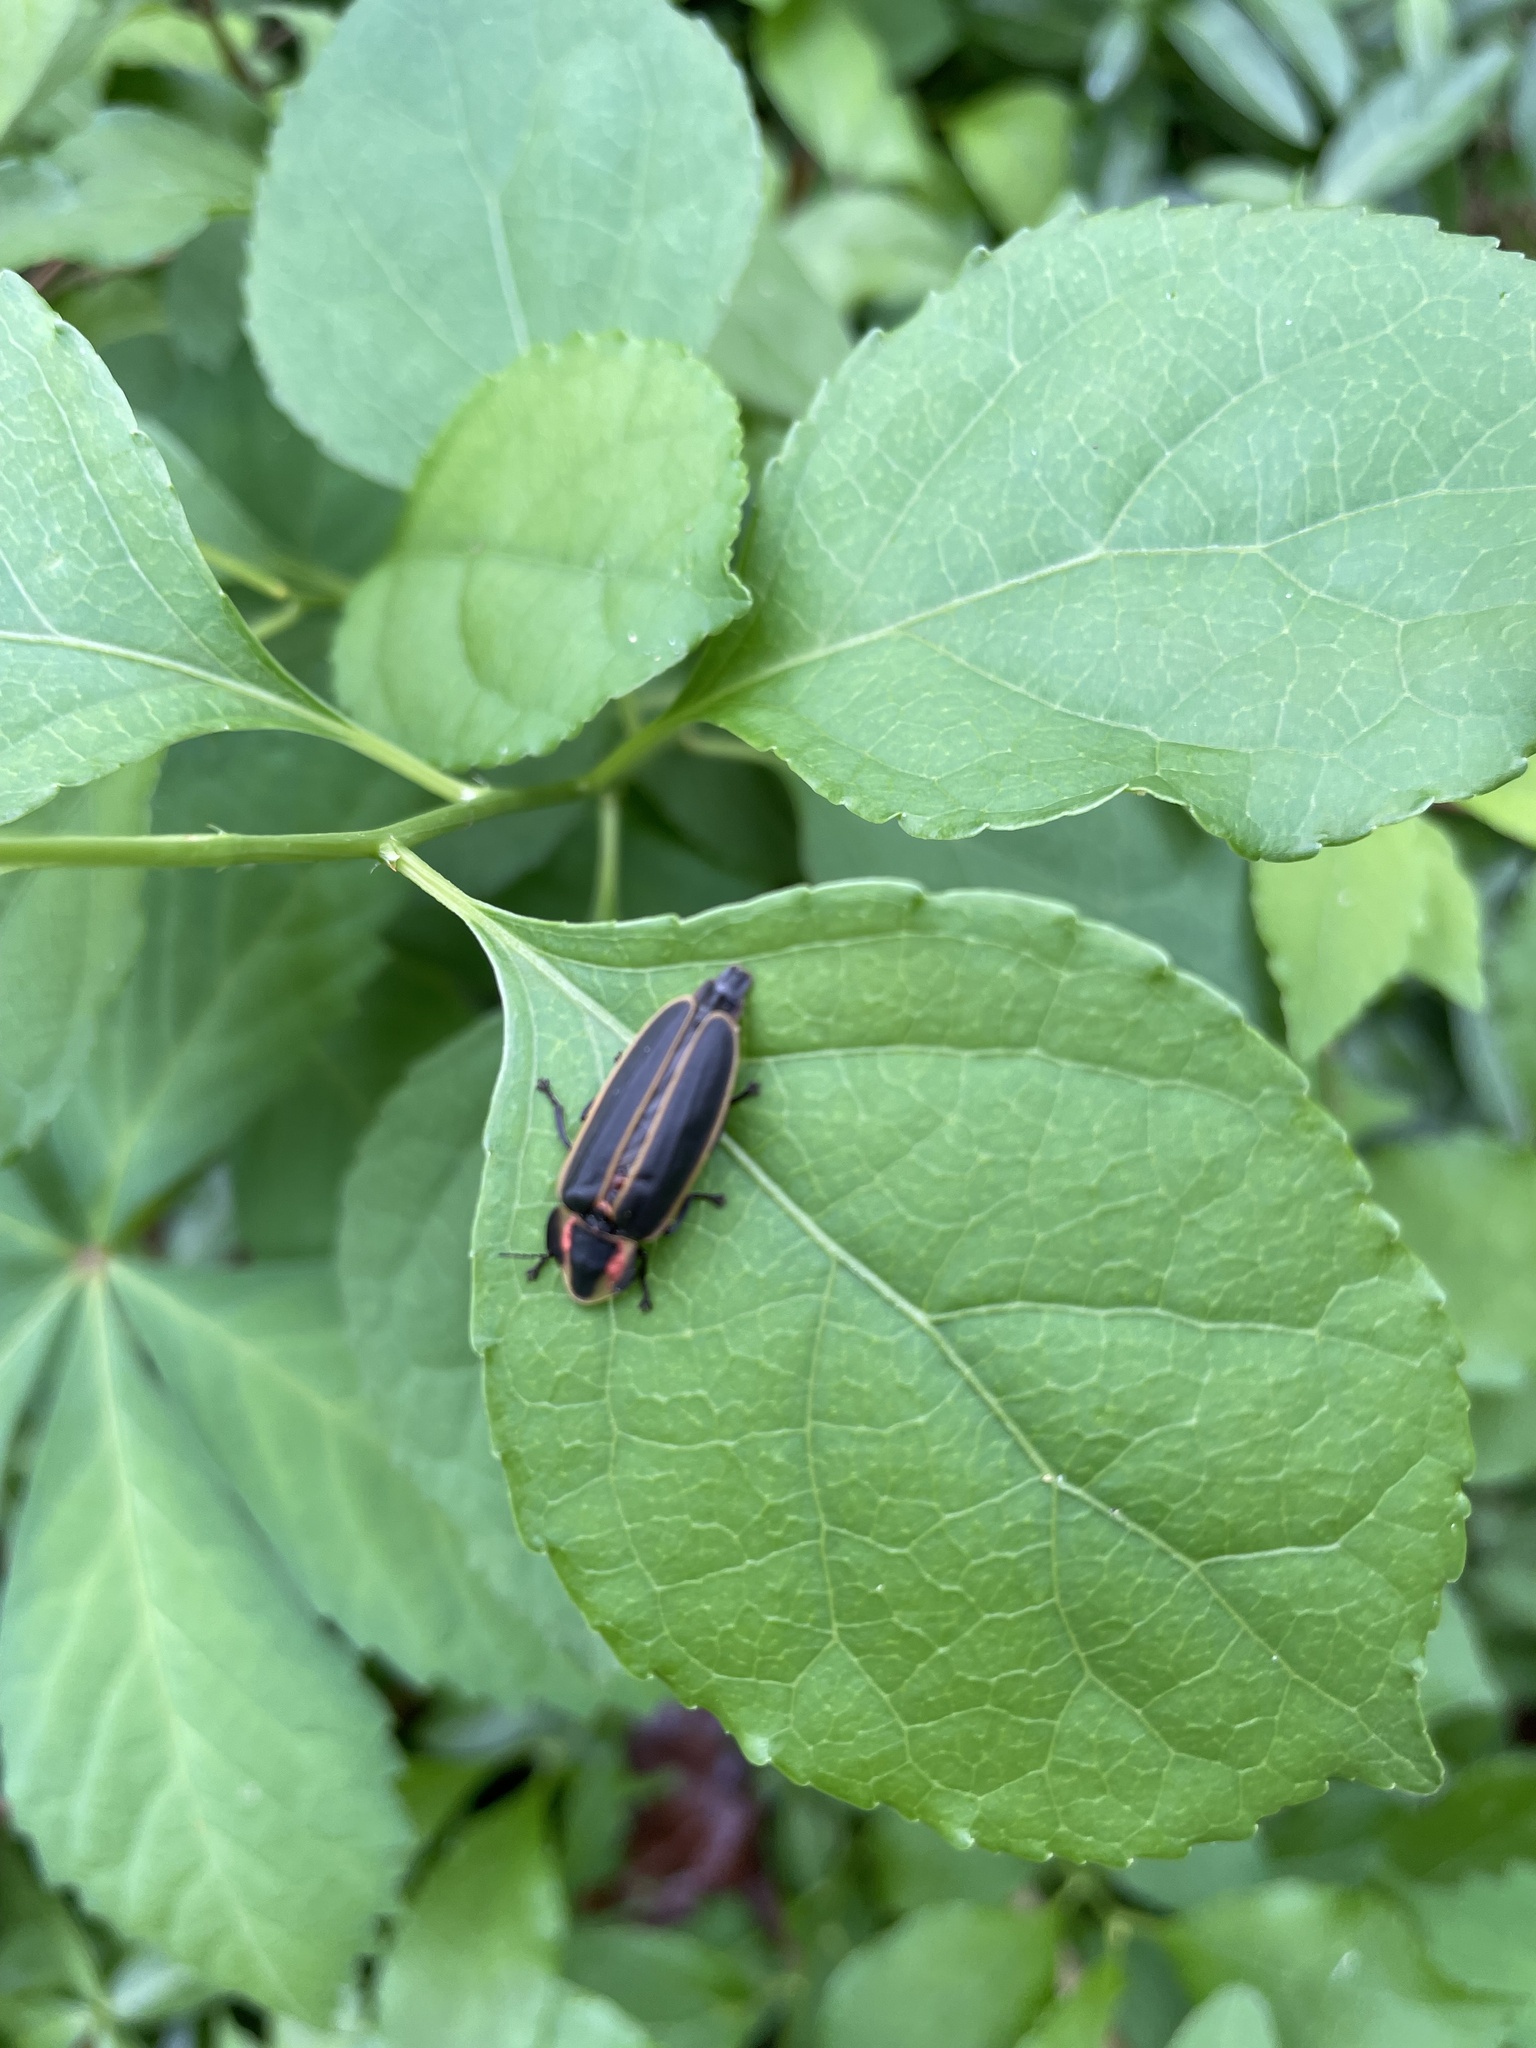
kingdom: Animalia
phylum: Arthropoda
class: Insecta
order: Coleoptera
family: Lampyridae
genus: Pyractomena
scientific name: Pyractomena borealis
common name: Northern firefly
